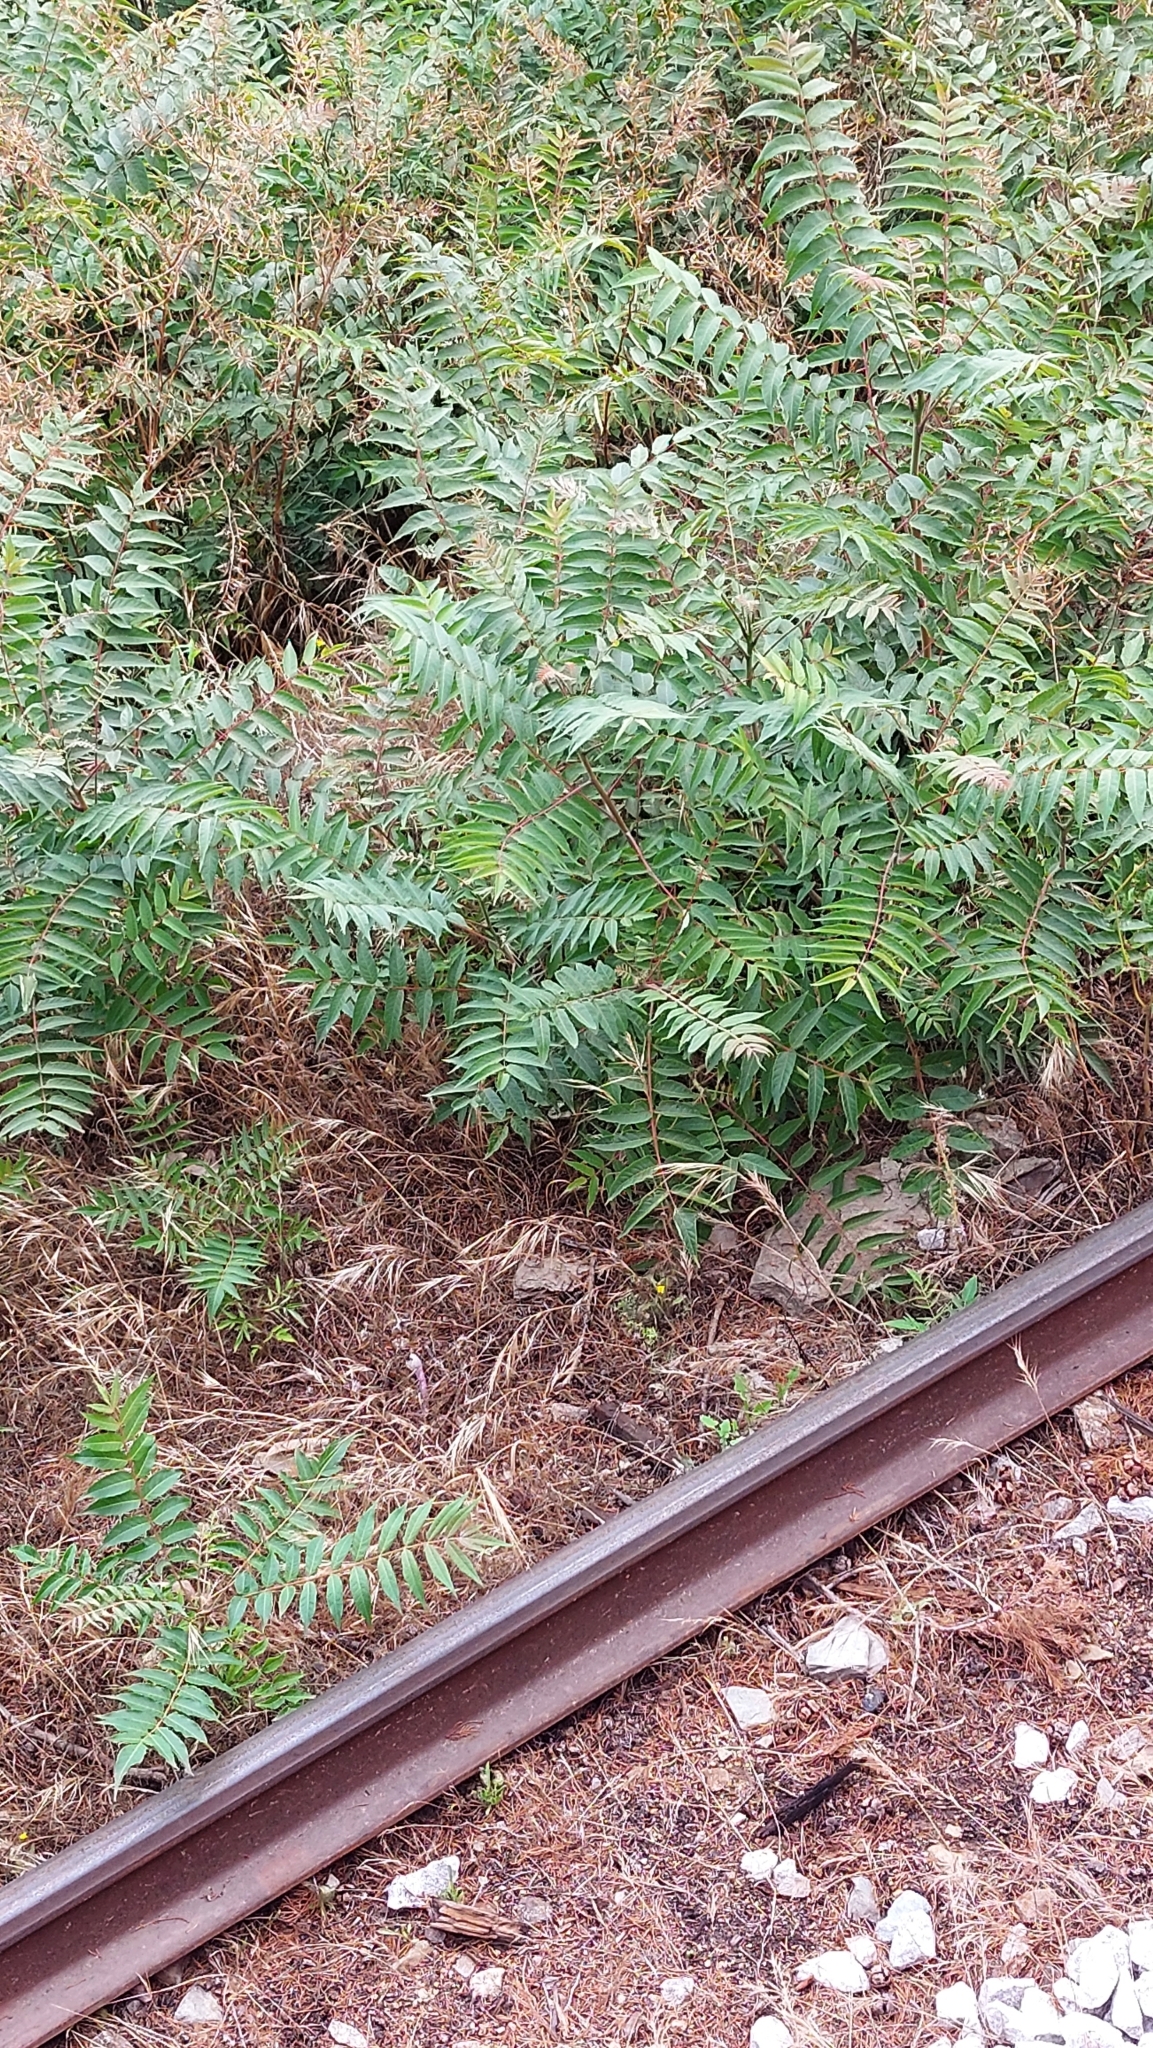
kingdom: Plantae
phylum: Tracheophyta
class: Magnoliopsida
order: Sapindales
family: Simaroubaceae
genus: Ailanthus
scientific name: Ailanthus altissima
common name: Tree-of-heaven
